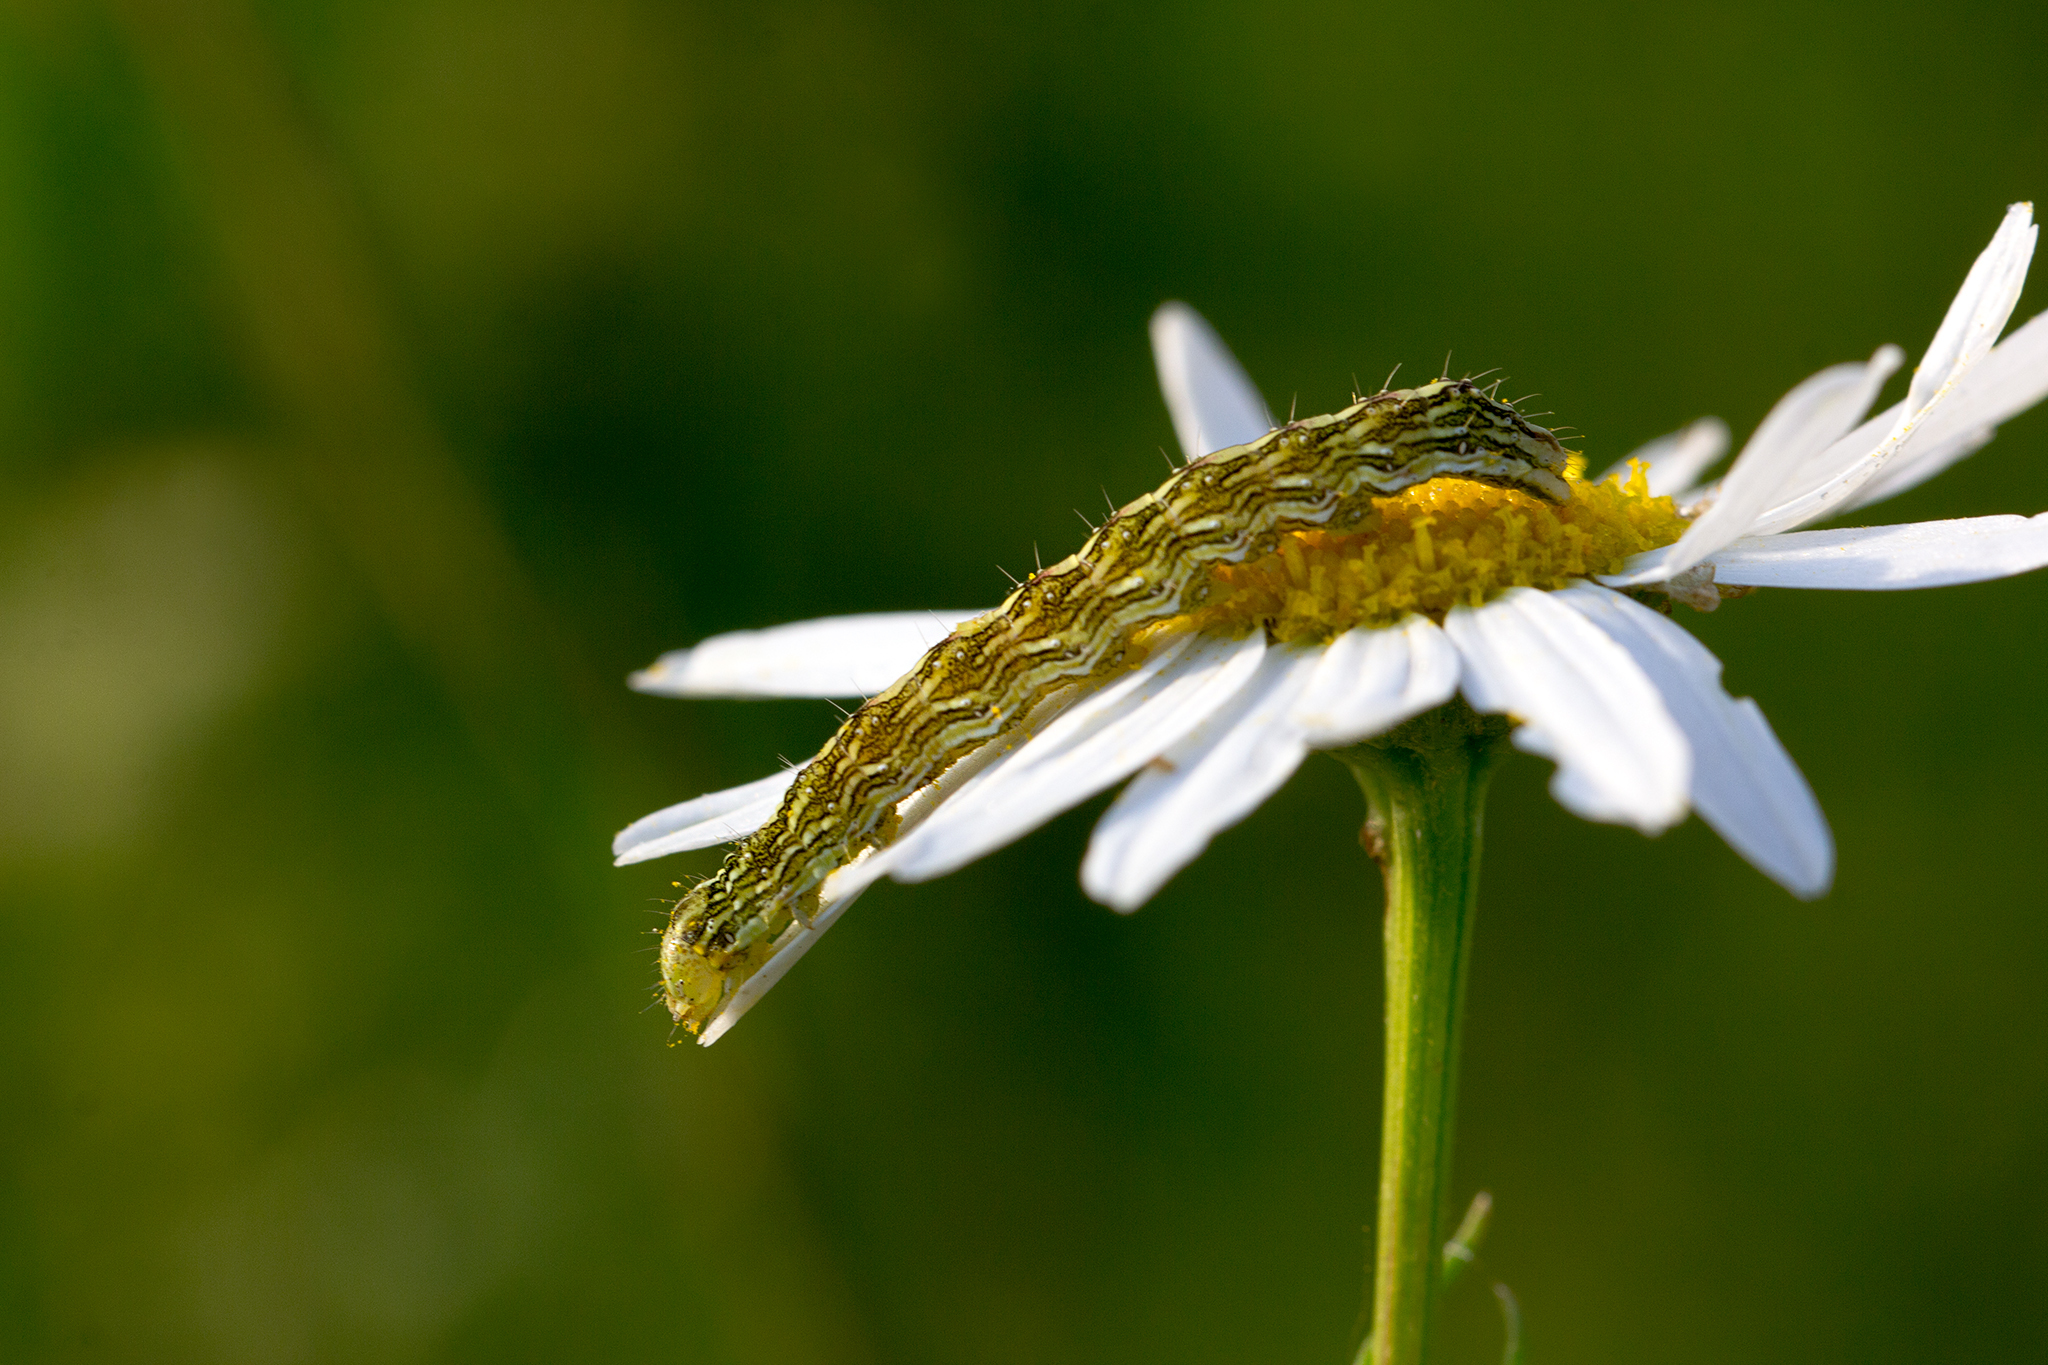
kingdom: Animalia
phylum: Arthropoda
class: Insecta
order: Lepidoptera
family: Noctuidae
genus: Cucullia
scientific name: Cucullia chamomillae
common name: Chamomile shark
